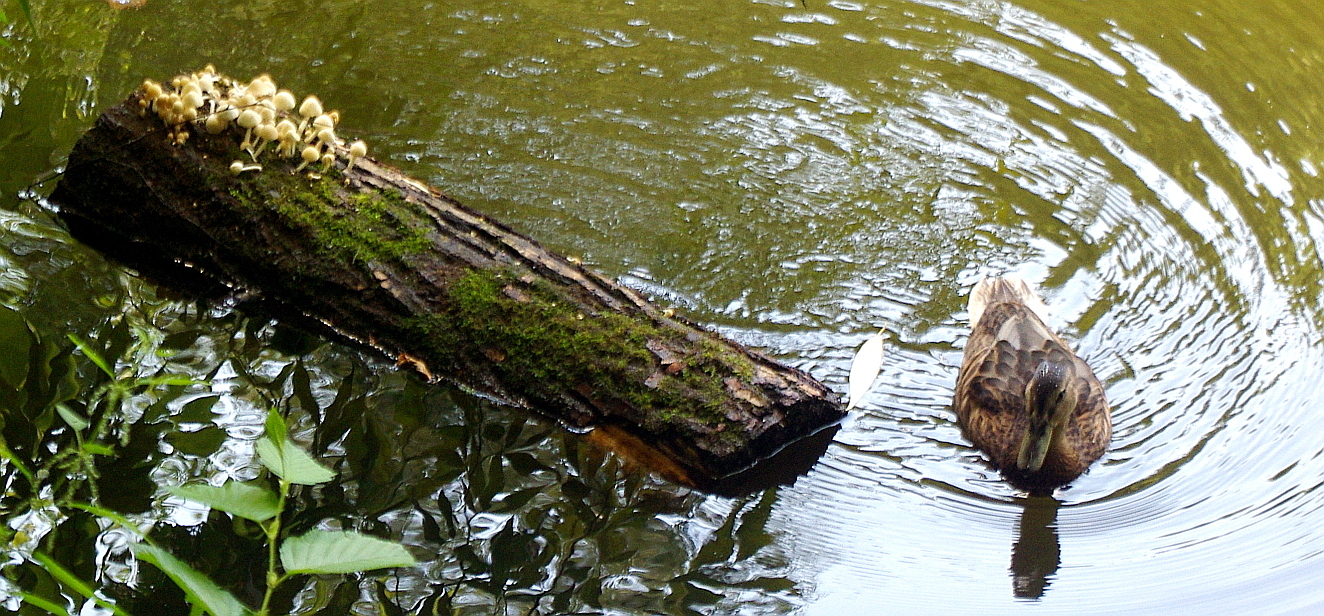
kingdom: Animalia
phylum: Chordata
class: Aves
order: Anseriformes
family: Anatidae
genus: Anas
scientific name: Anas platyrhynchos
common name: Mallard
